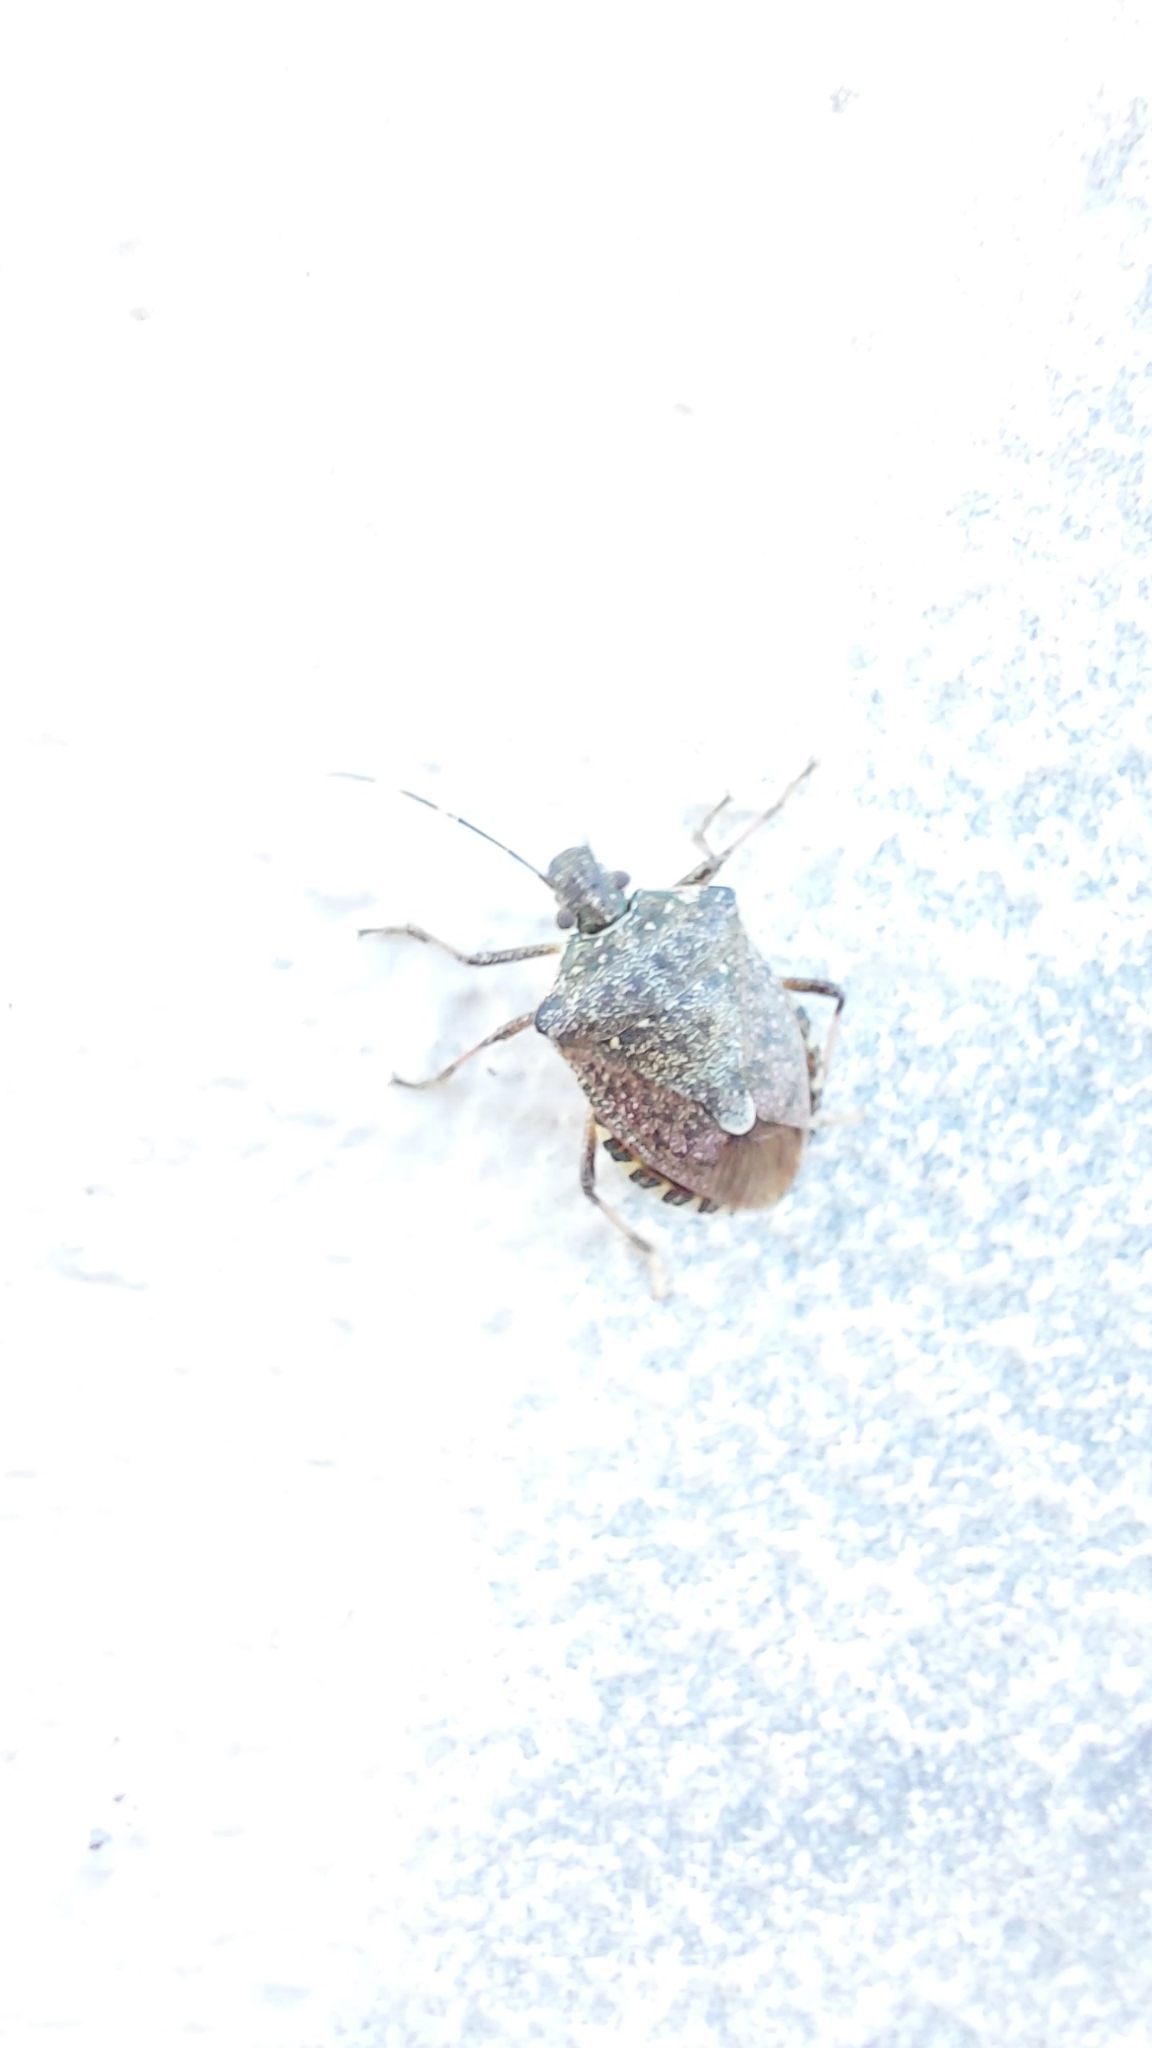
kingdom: Animalia
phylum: Arthropoda
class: Insecta
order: Hemiptera
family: Pentatomidae
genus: Halyomorpha
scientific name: Halyomorpha halys
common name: Brown marmorated stink bug
